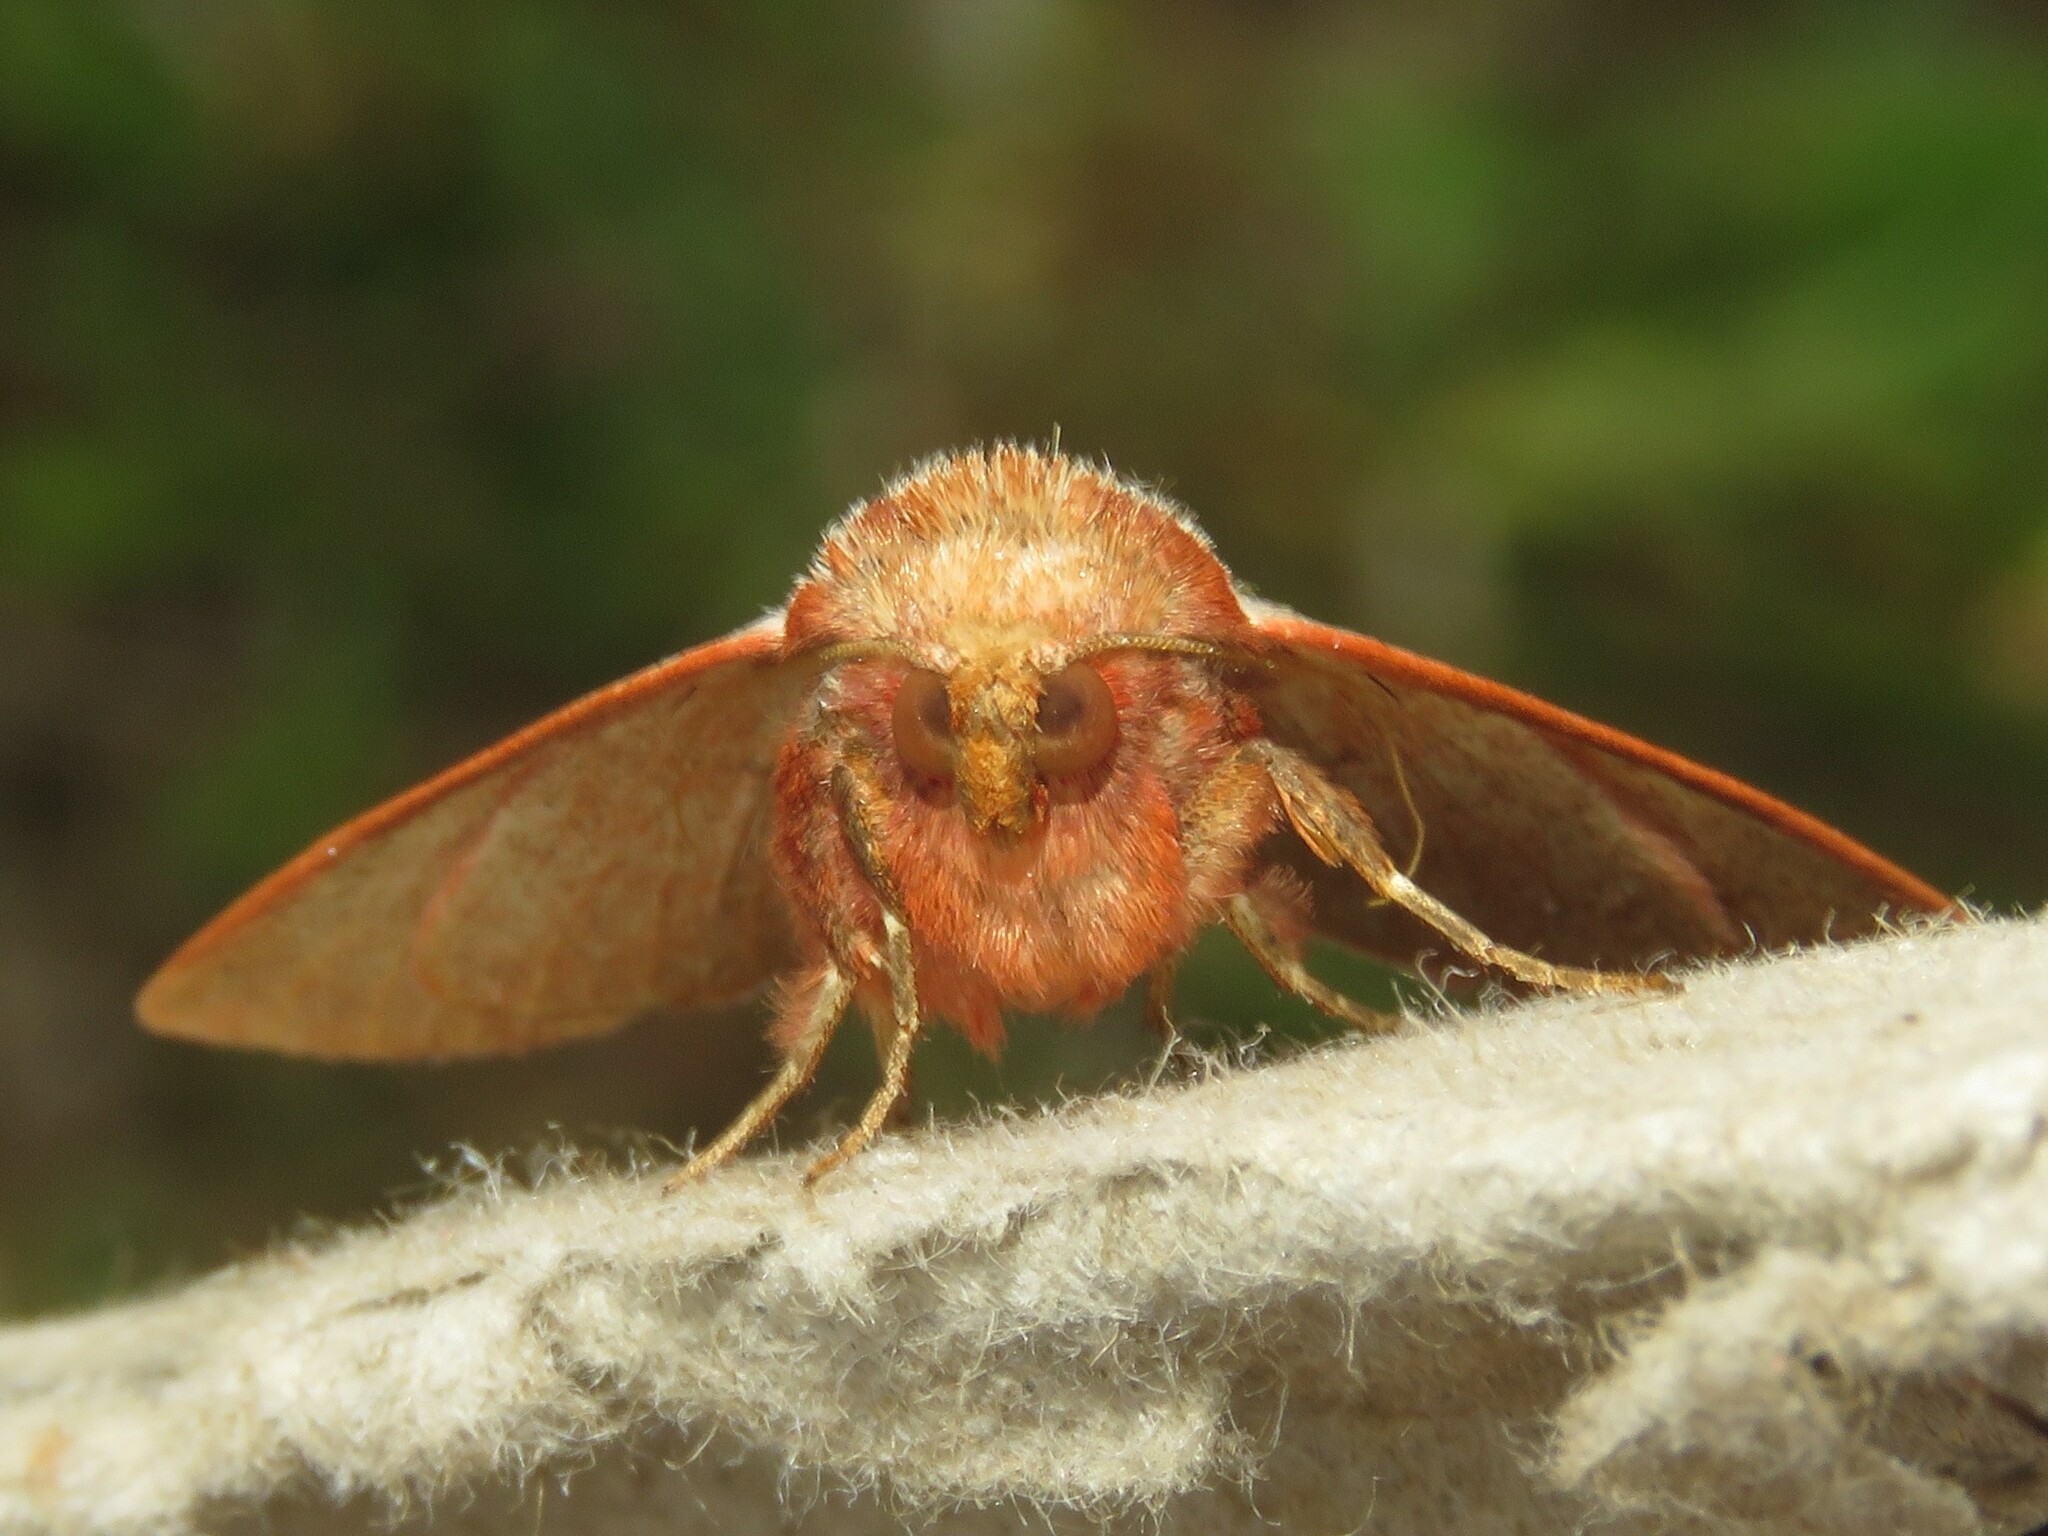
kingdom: Animalia
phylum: Arthropoda
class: Insecta
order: Lepidoptera
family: Erebidae
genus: Panopoda
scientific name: Panopoda rufimargo
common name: Red-lined panopoda moth
